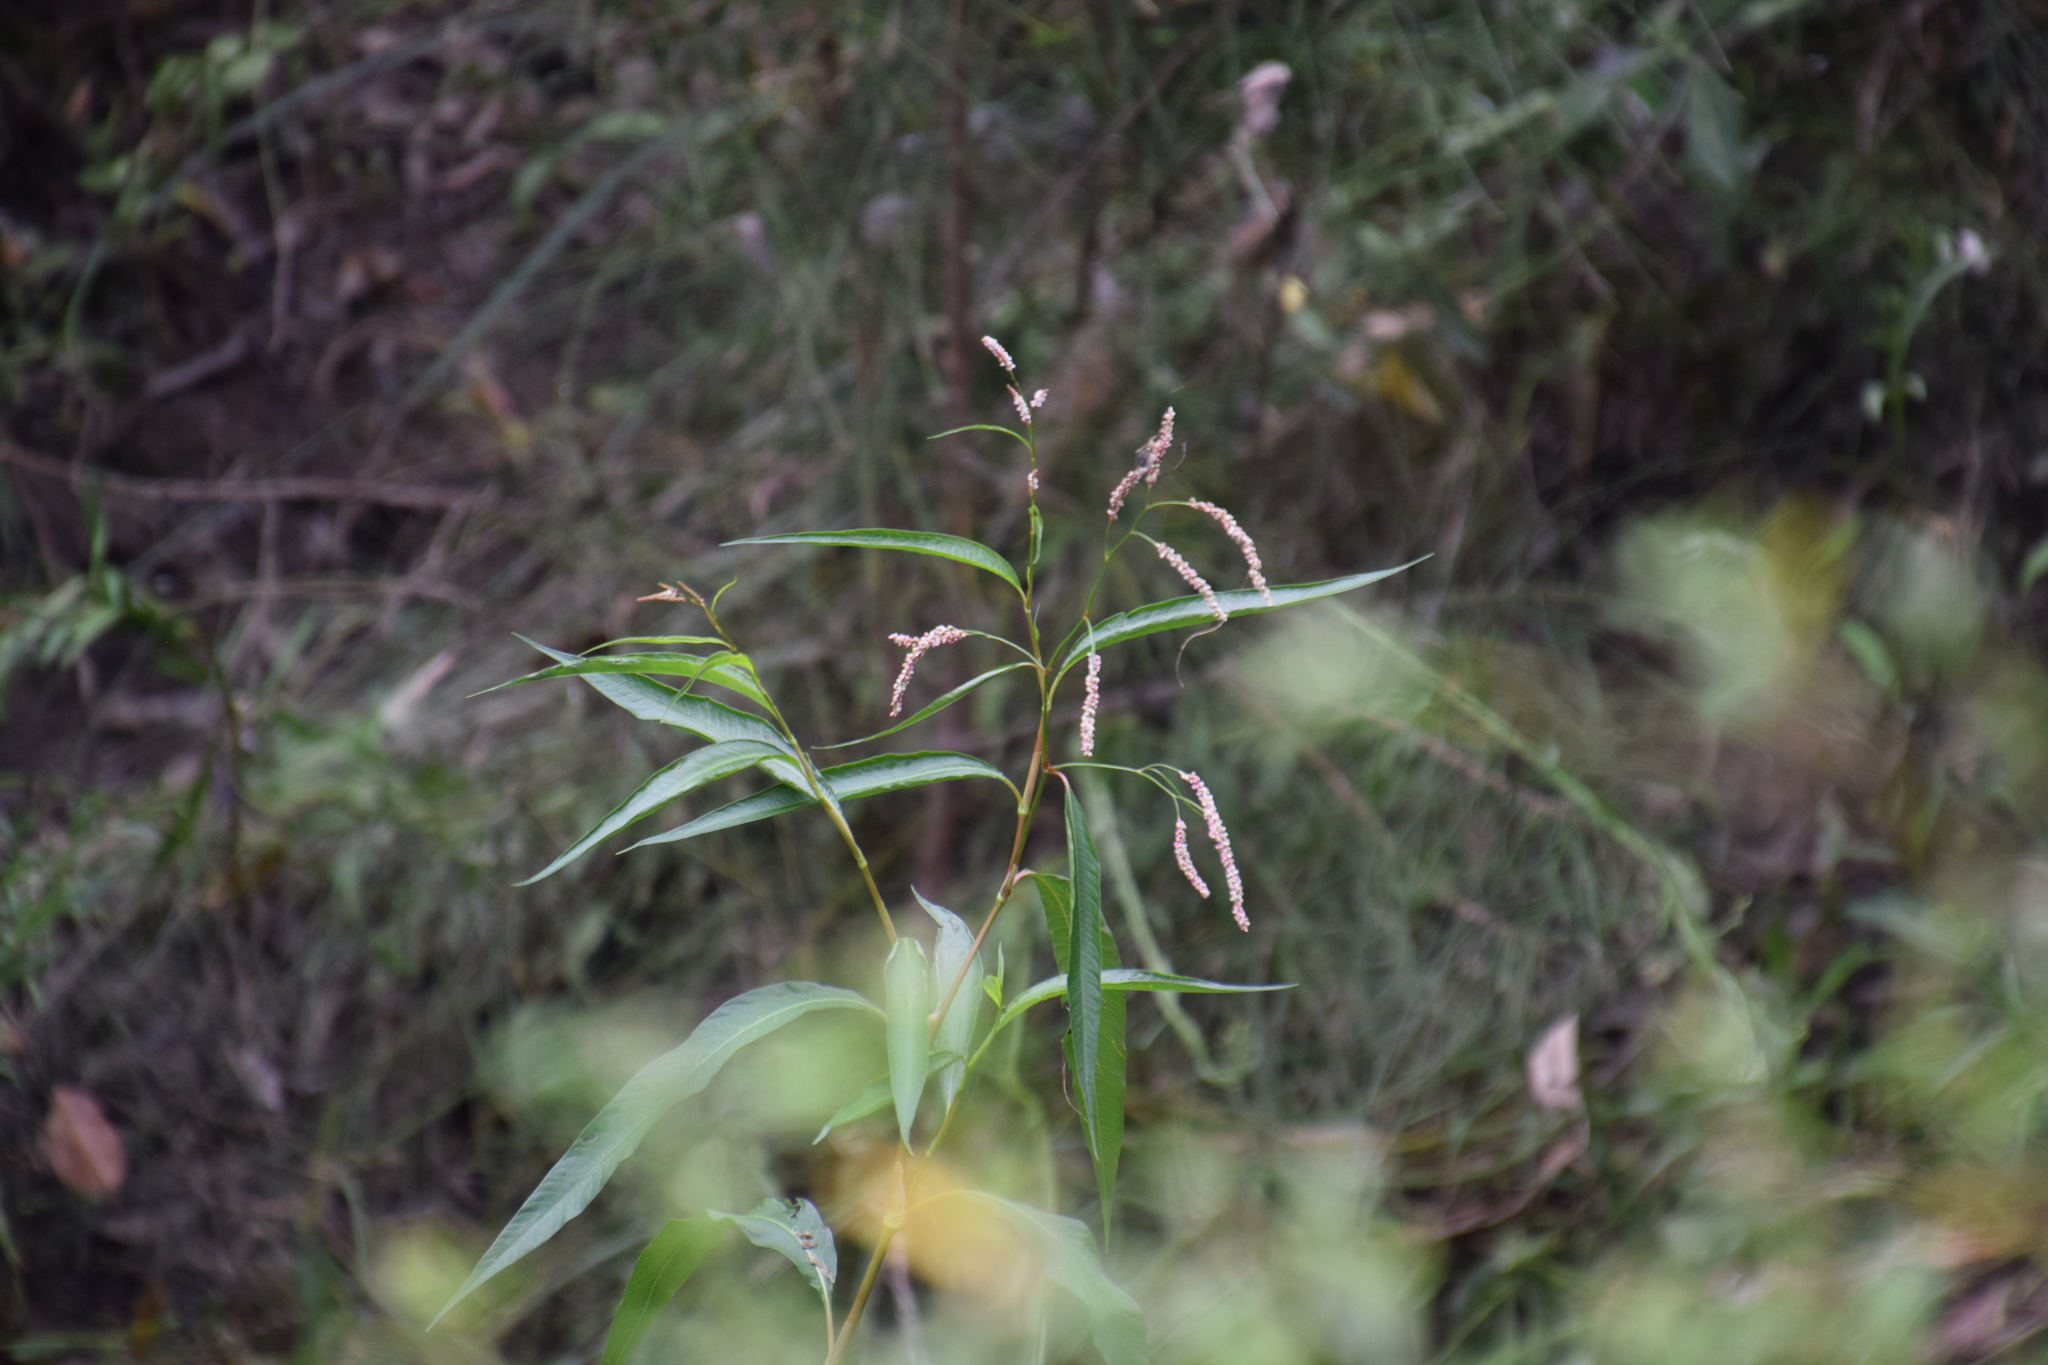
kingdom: Plantae
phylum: Tracheophyta
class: Magnoliopsida
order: Caryophyllales
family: Polygonaceae
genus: Persicaria
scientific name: Persicaria lapathifolia
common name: Curlytop knotweed
